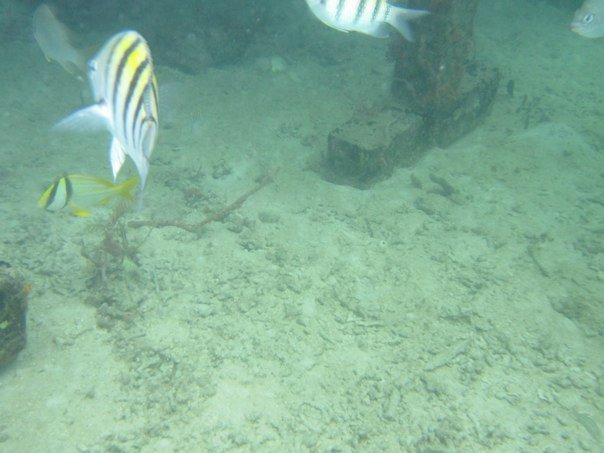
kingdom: Animalia
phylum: Chordata
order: Perciformes
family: Pomacentridae
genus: Abudefduf
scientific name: Abudefduf saxatilis
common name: Sergeant major
